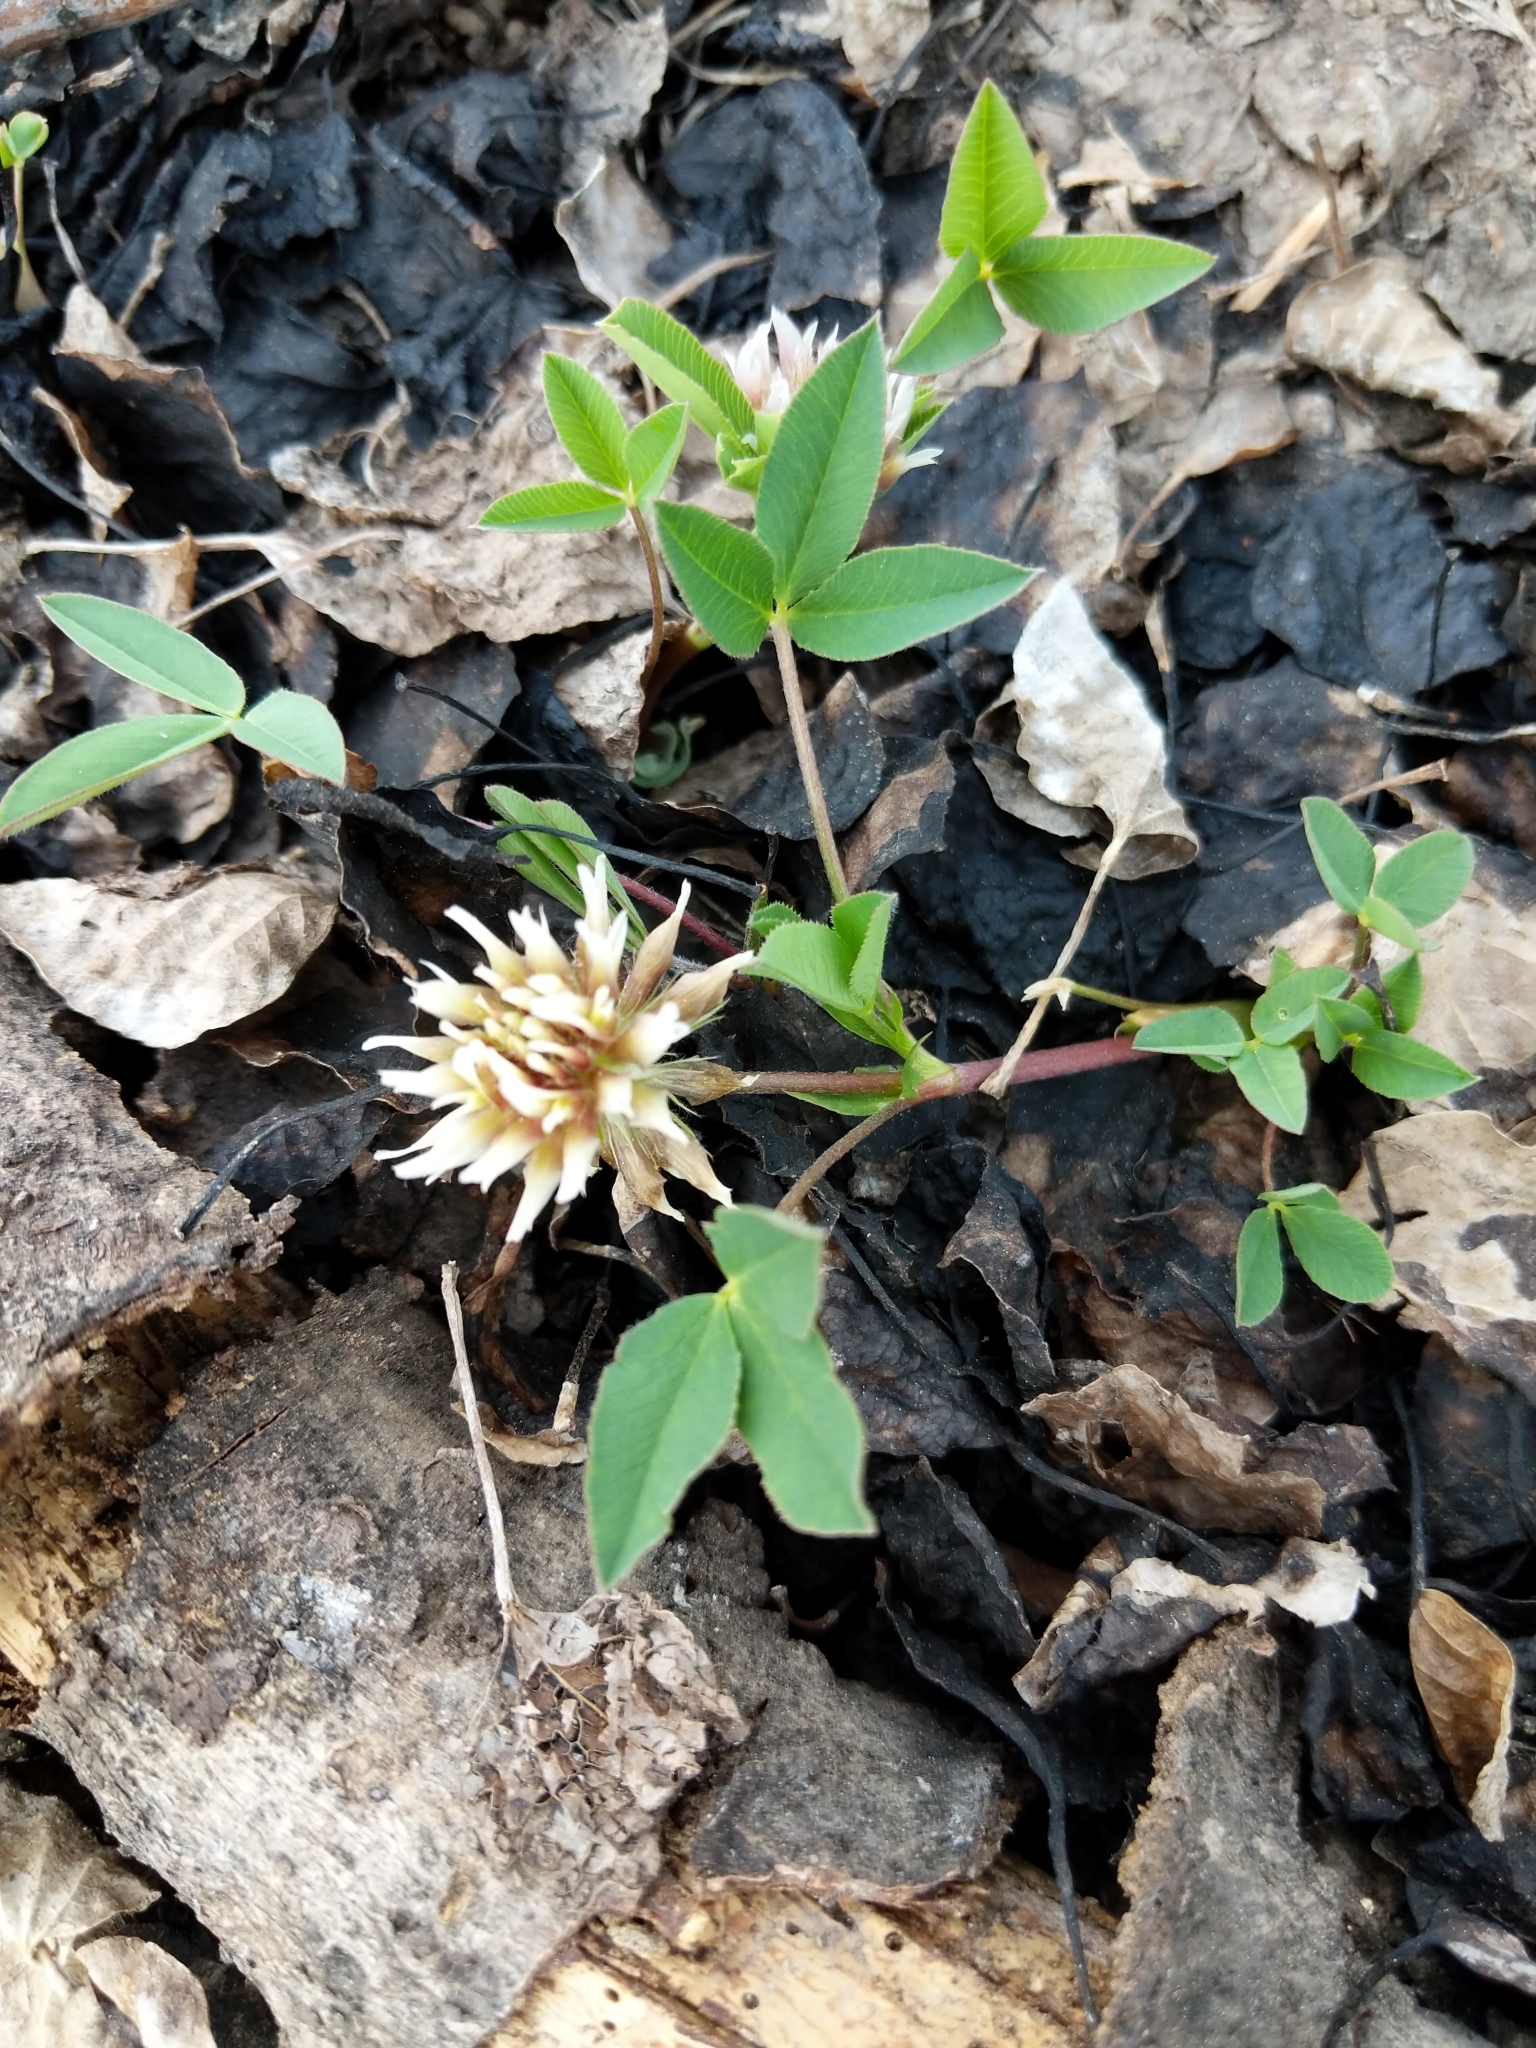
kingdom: Plantae
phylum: Tracheophyta
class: Magnoliopsida
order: Fabales
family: Fabaceae
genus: Trifolium
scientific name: Trifolium longipes
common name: Long-stalk clover
